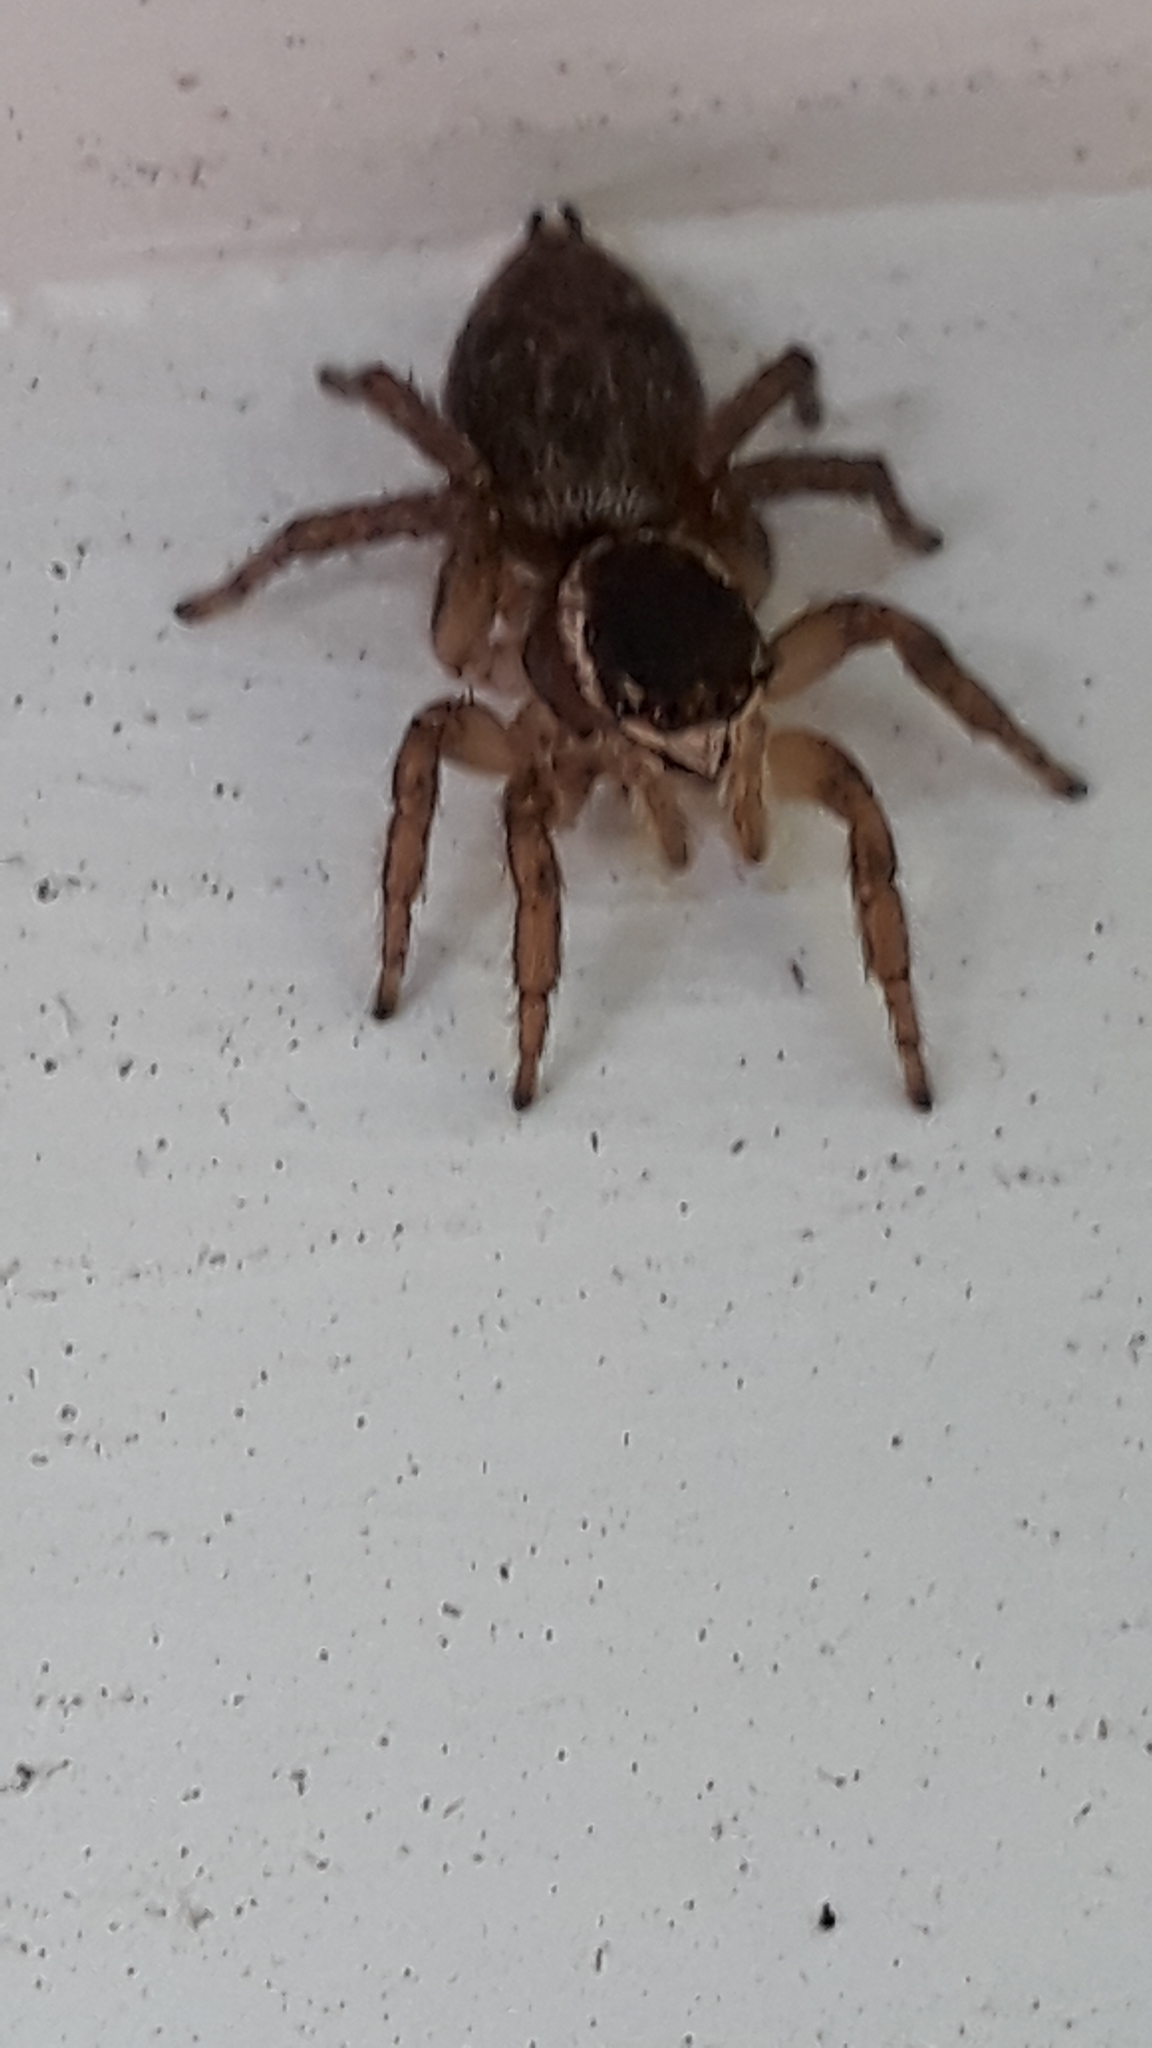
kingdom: Animalia
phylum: Arthropoda
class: Arachnida
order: Araneae
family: Salticidae
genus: Maratus
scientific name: Maratus griseus
